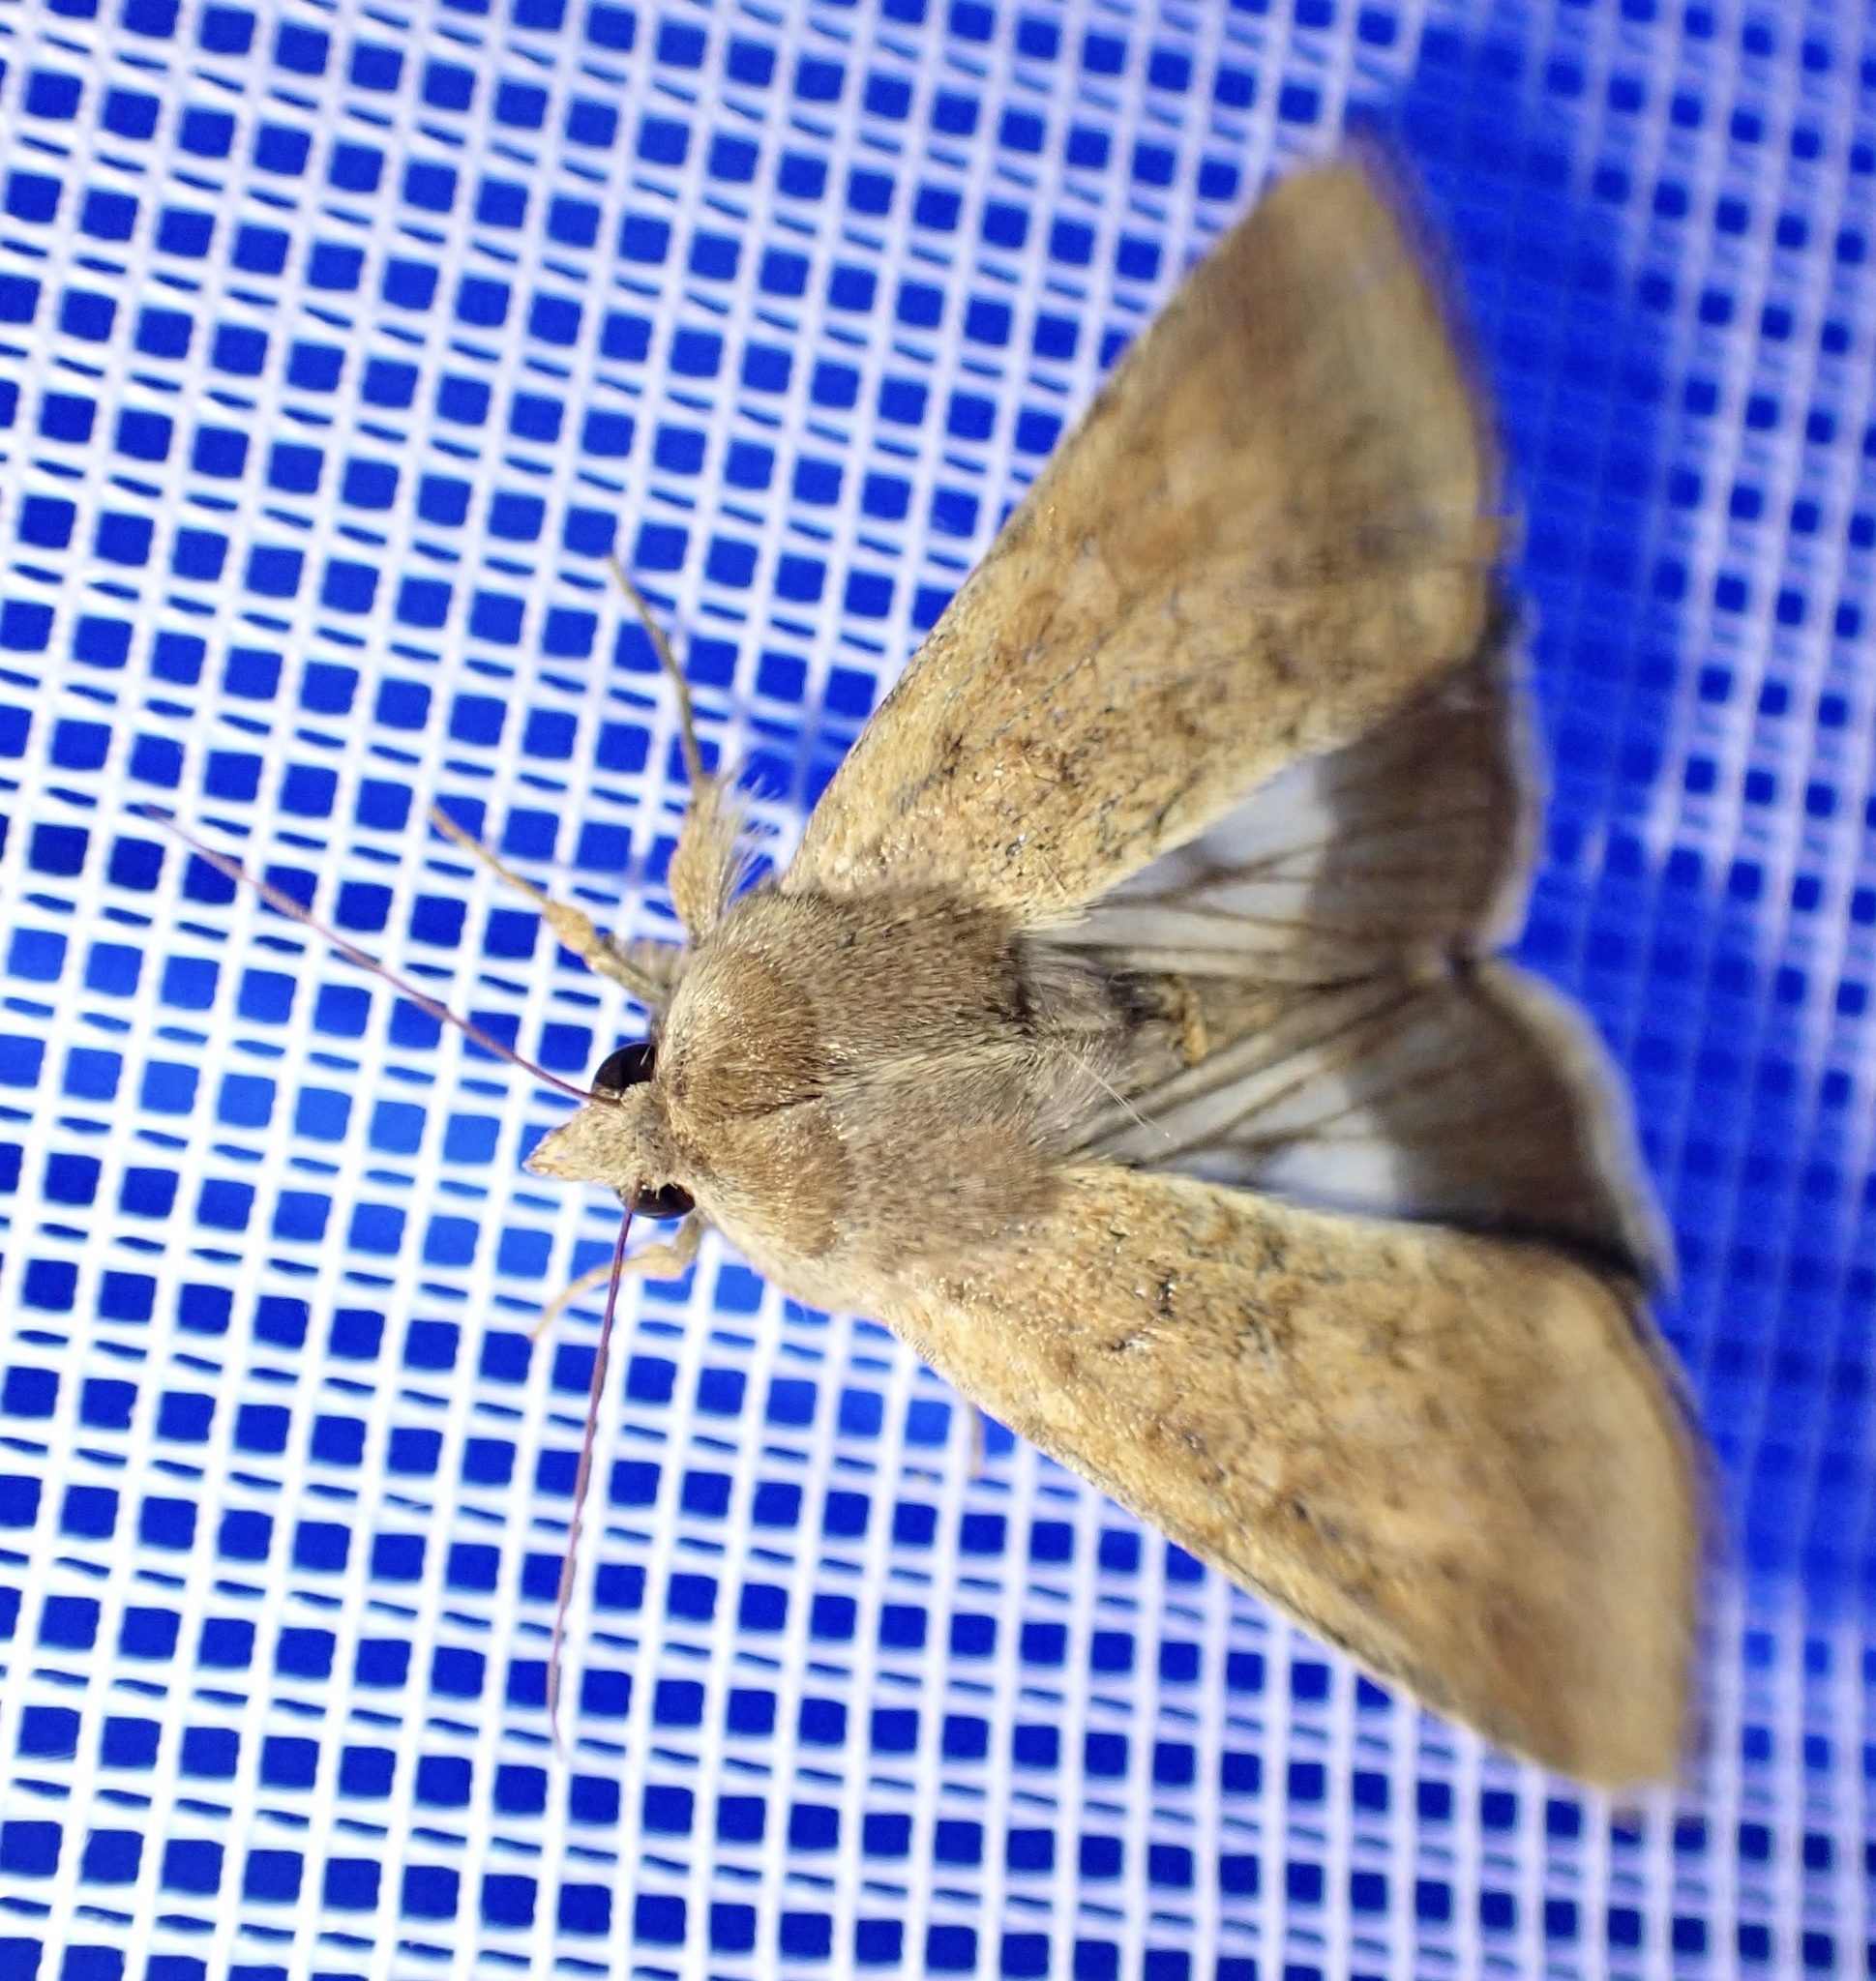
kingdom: Animalia
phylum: Arthropoda
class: Insecta
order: Lepidoptera
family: Noctuidae
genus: Helicoverpa
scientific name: Helicoverpa armigera
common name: Cotton bollworm
